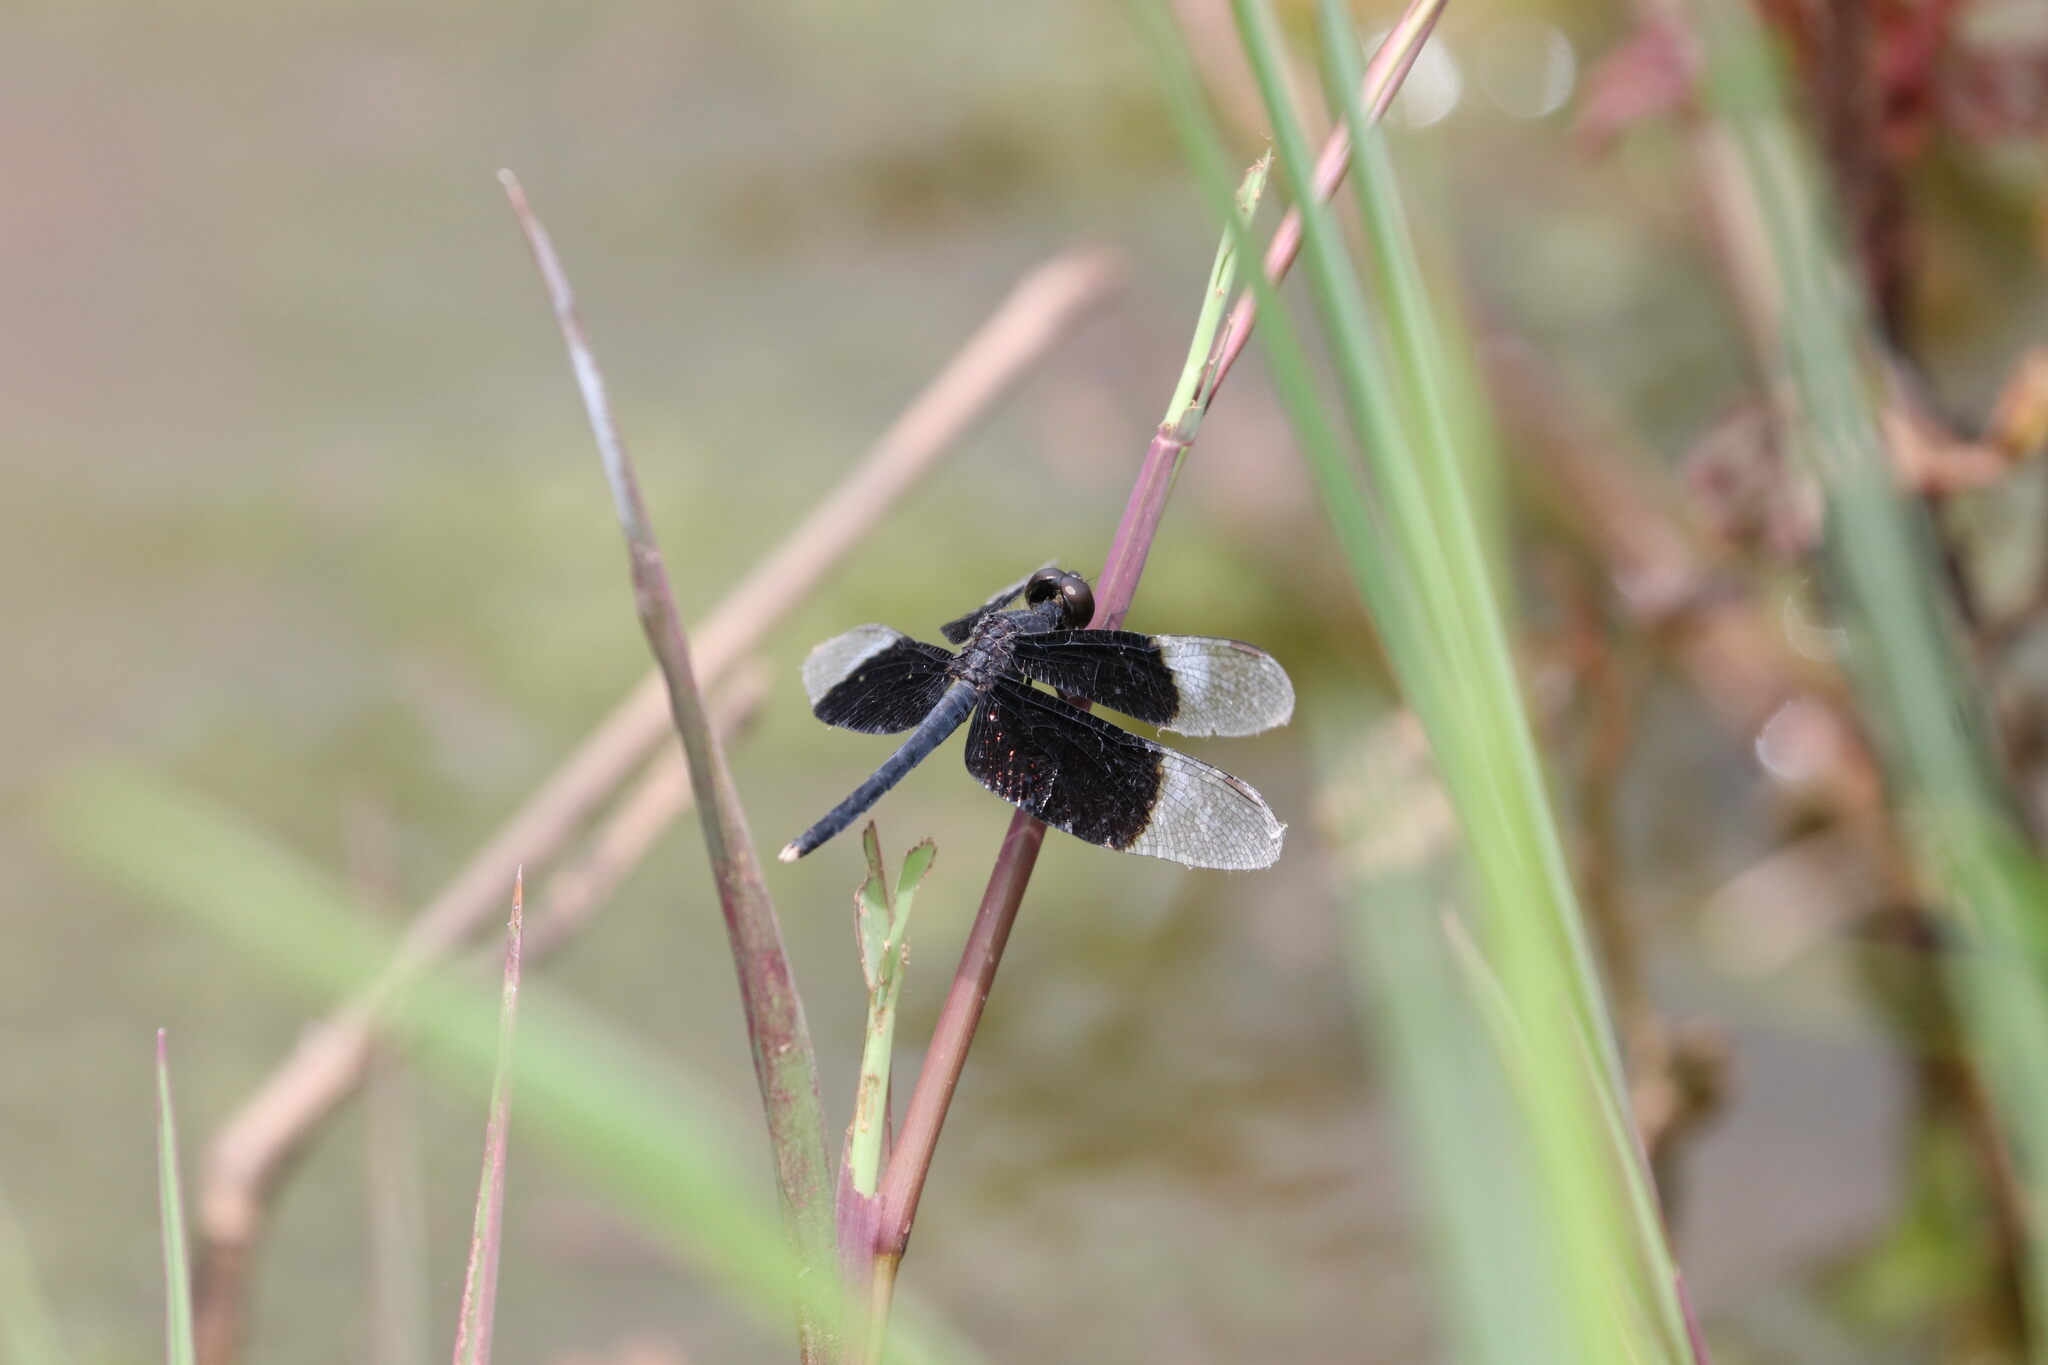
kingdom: Animalia
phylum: Arthropoda
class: Insecta
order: Odonata
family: Libellulidae
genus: Neurothemis
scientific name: Neurothemis tullia
